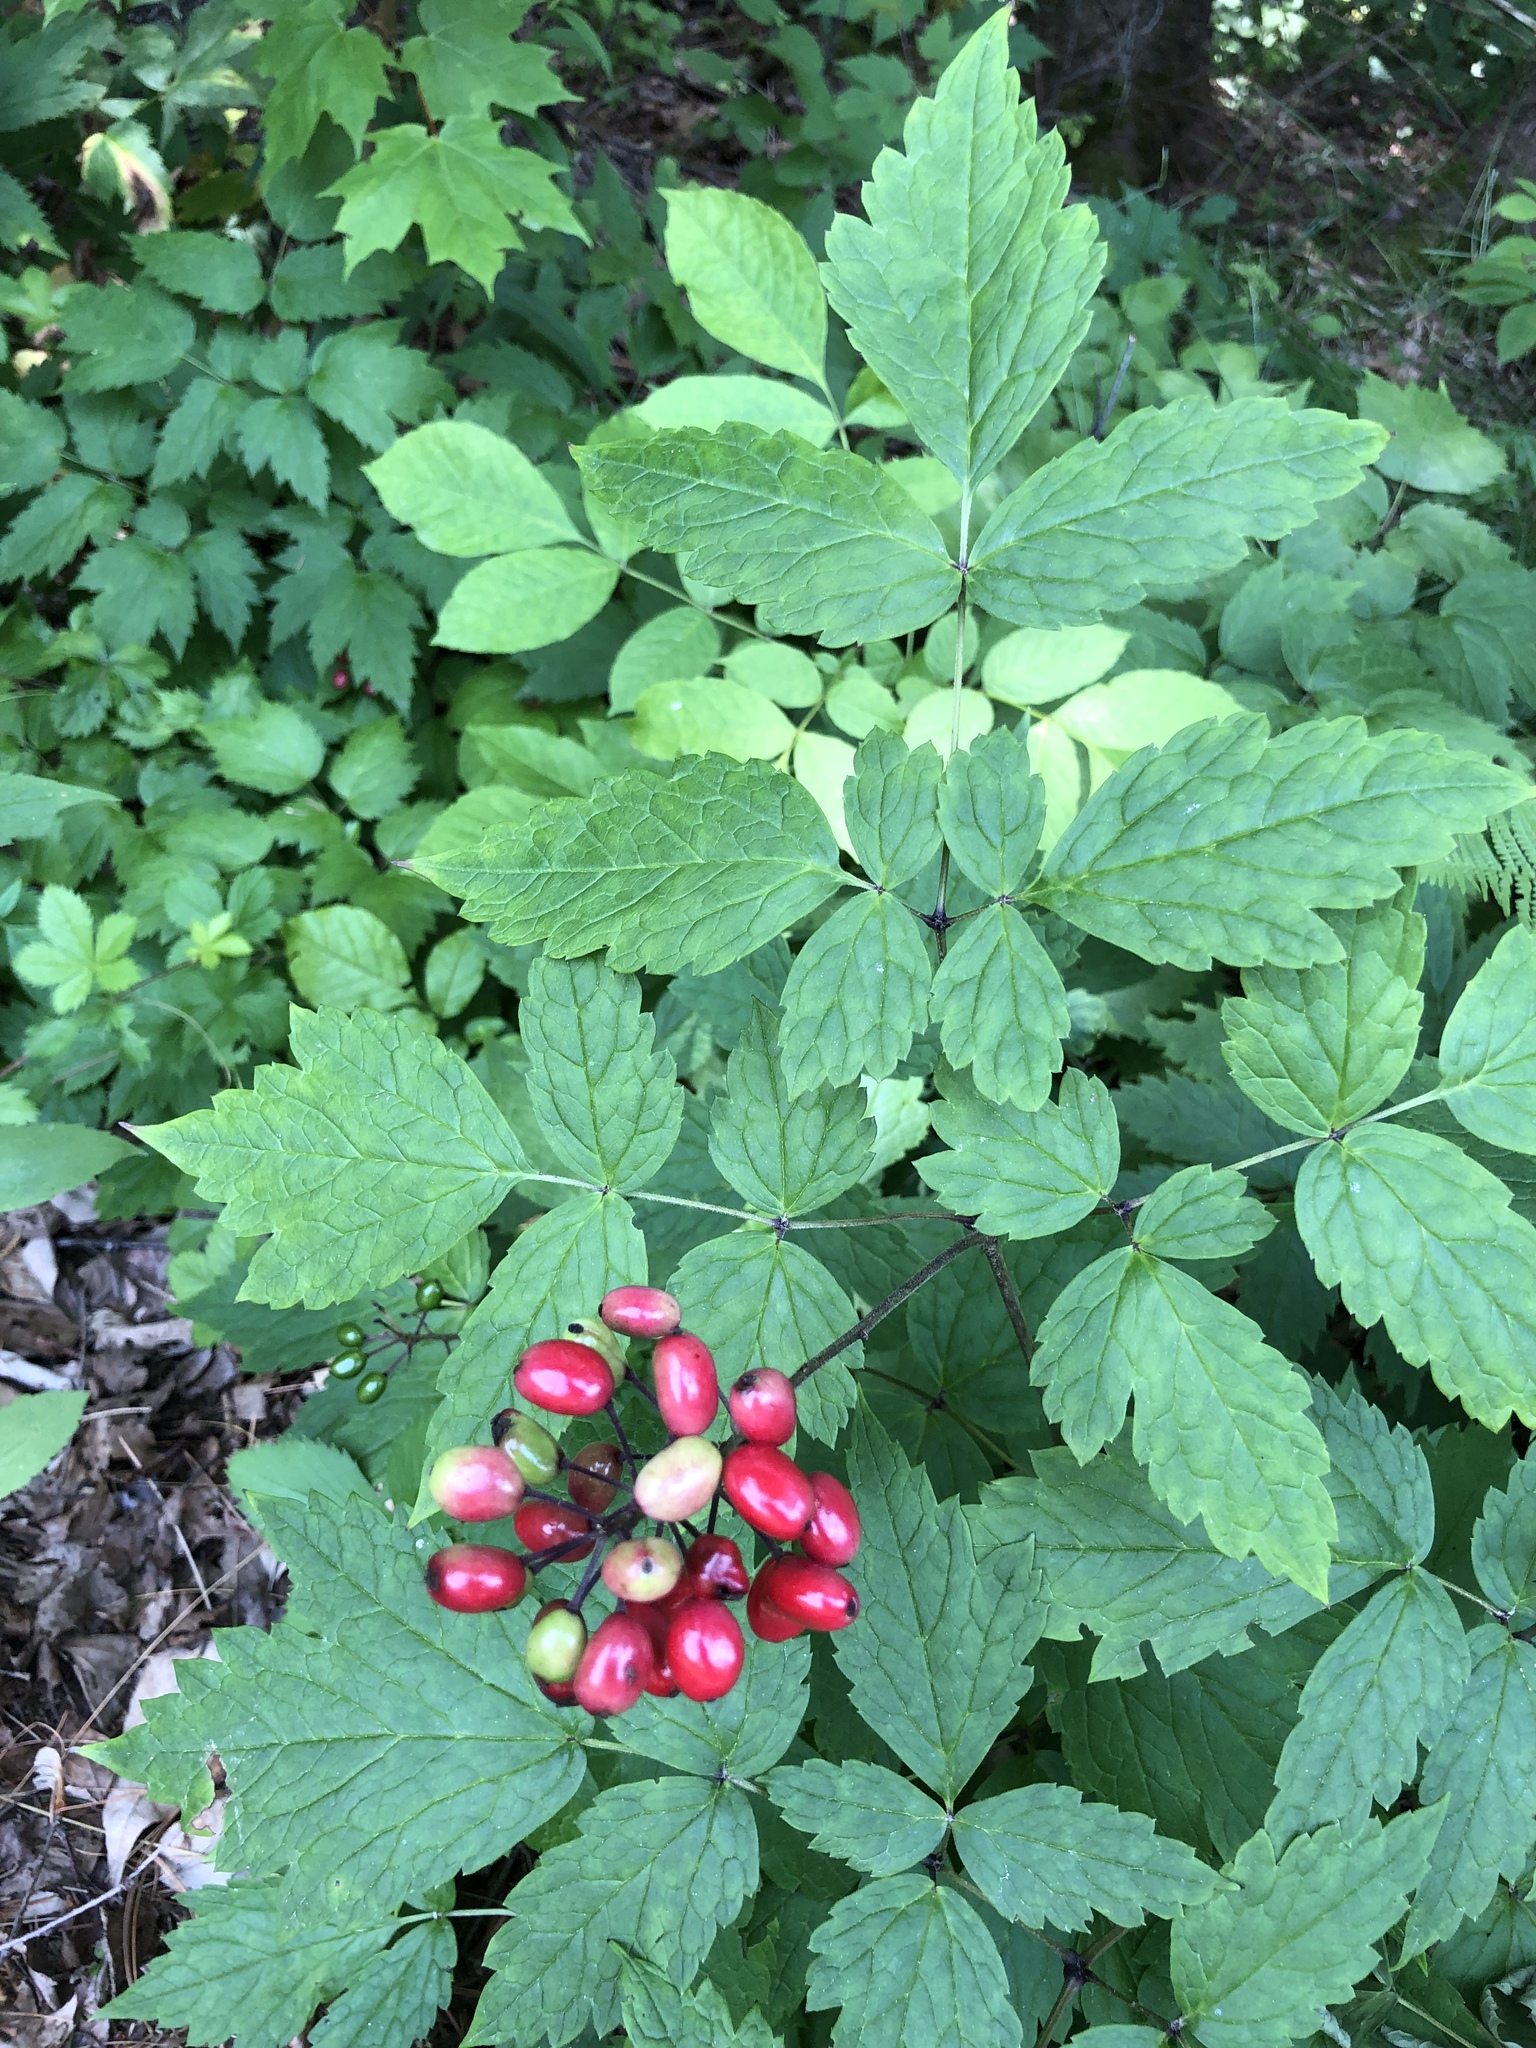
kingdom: Plantae
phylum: Tracheophyta
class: Magnoliopsida
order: Ranunculales
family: Ranunculaceae
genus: Actaea
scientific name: Actaea rubra
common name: Red baneberry
